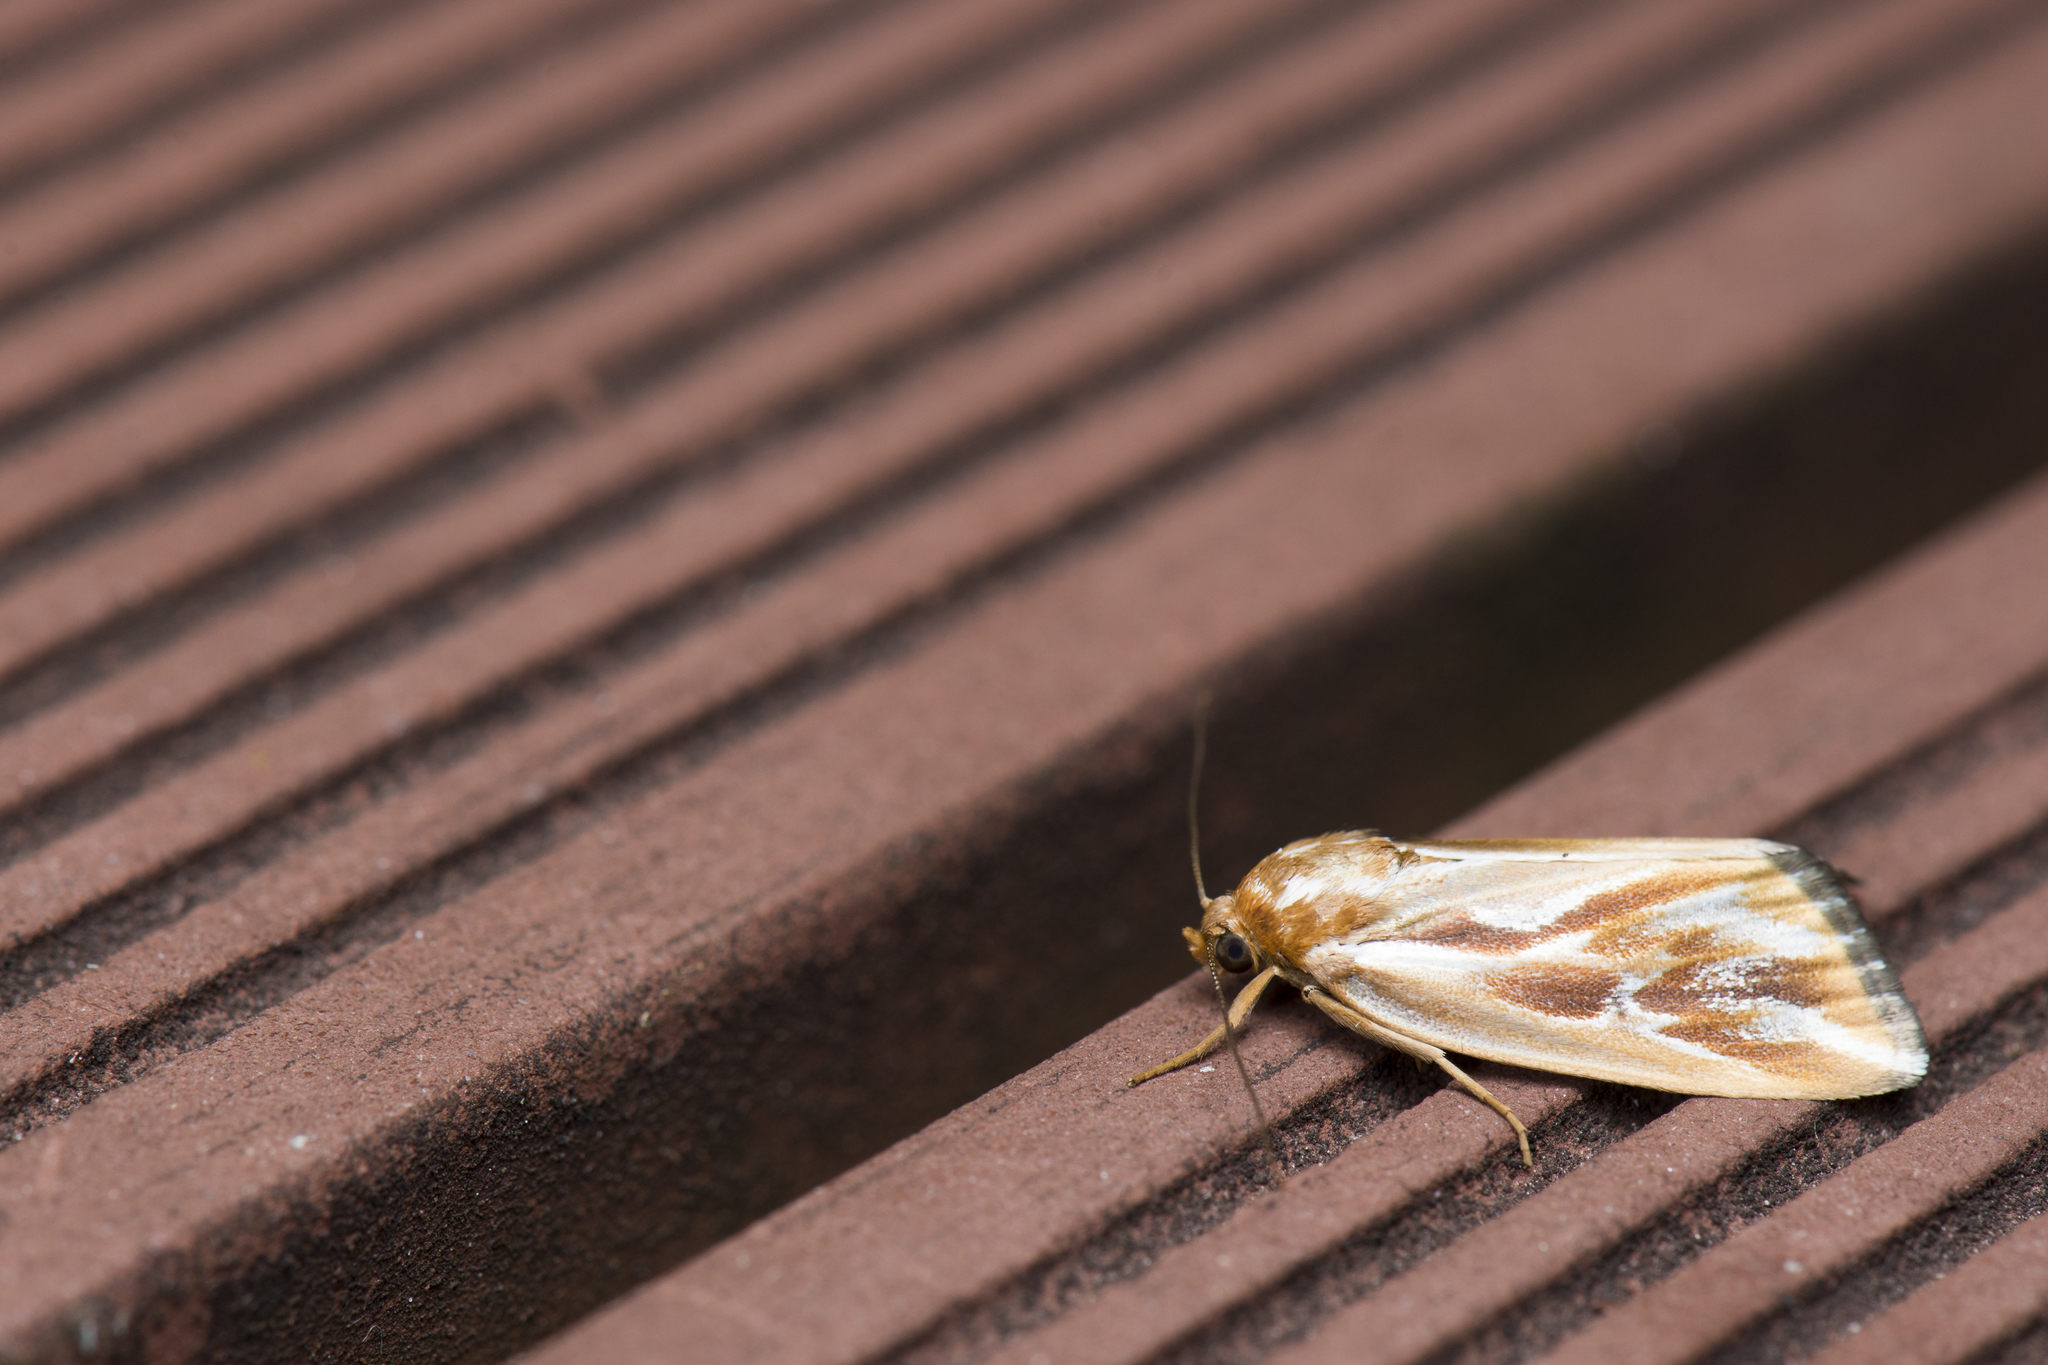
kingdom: Animalia
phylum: Arthropoda
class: Insecta
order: Lepidoptera
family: Noctuidae
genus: Narangodes
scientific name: Narangodes confluens
